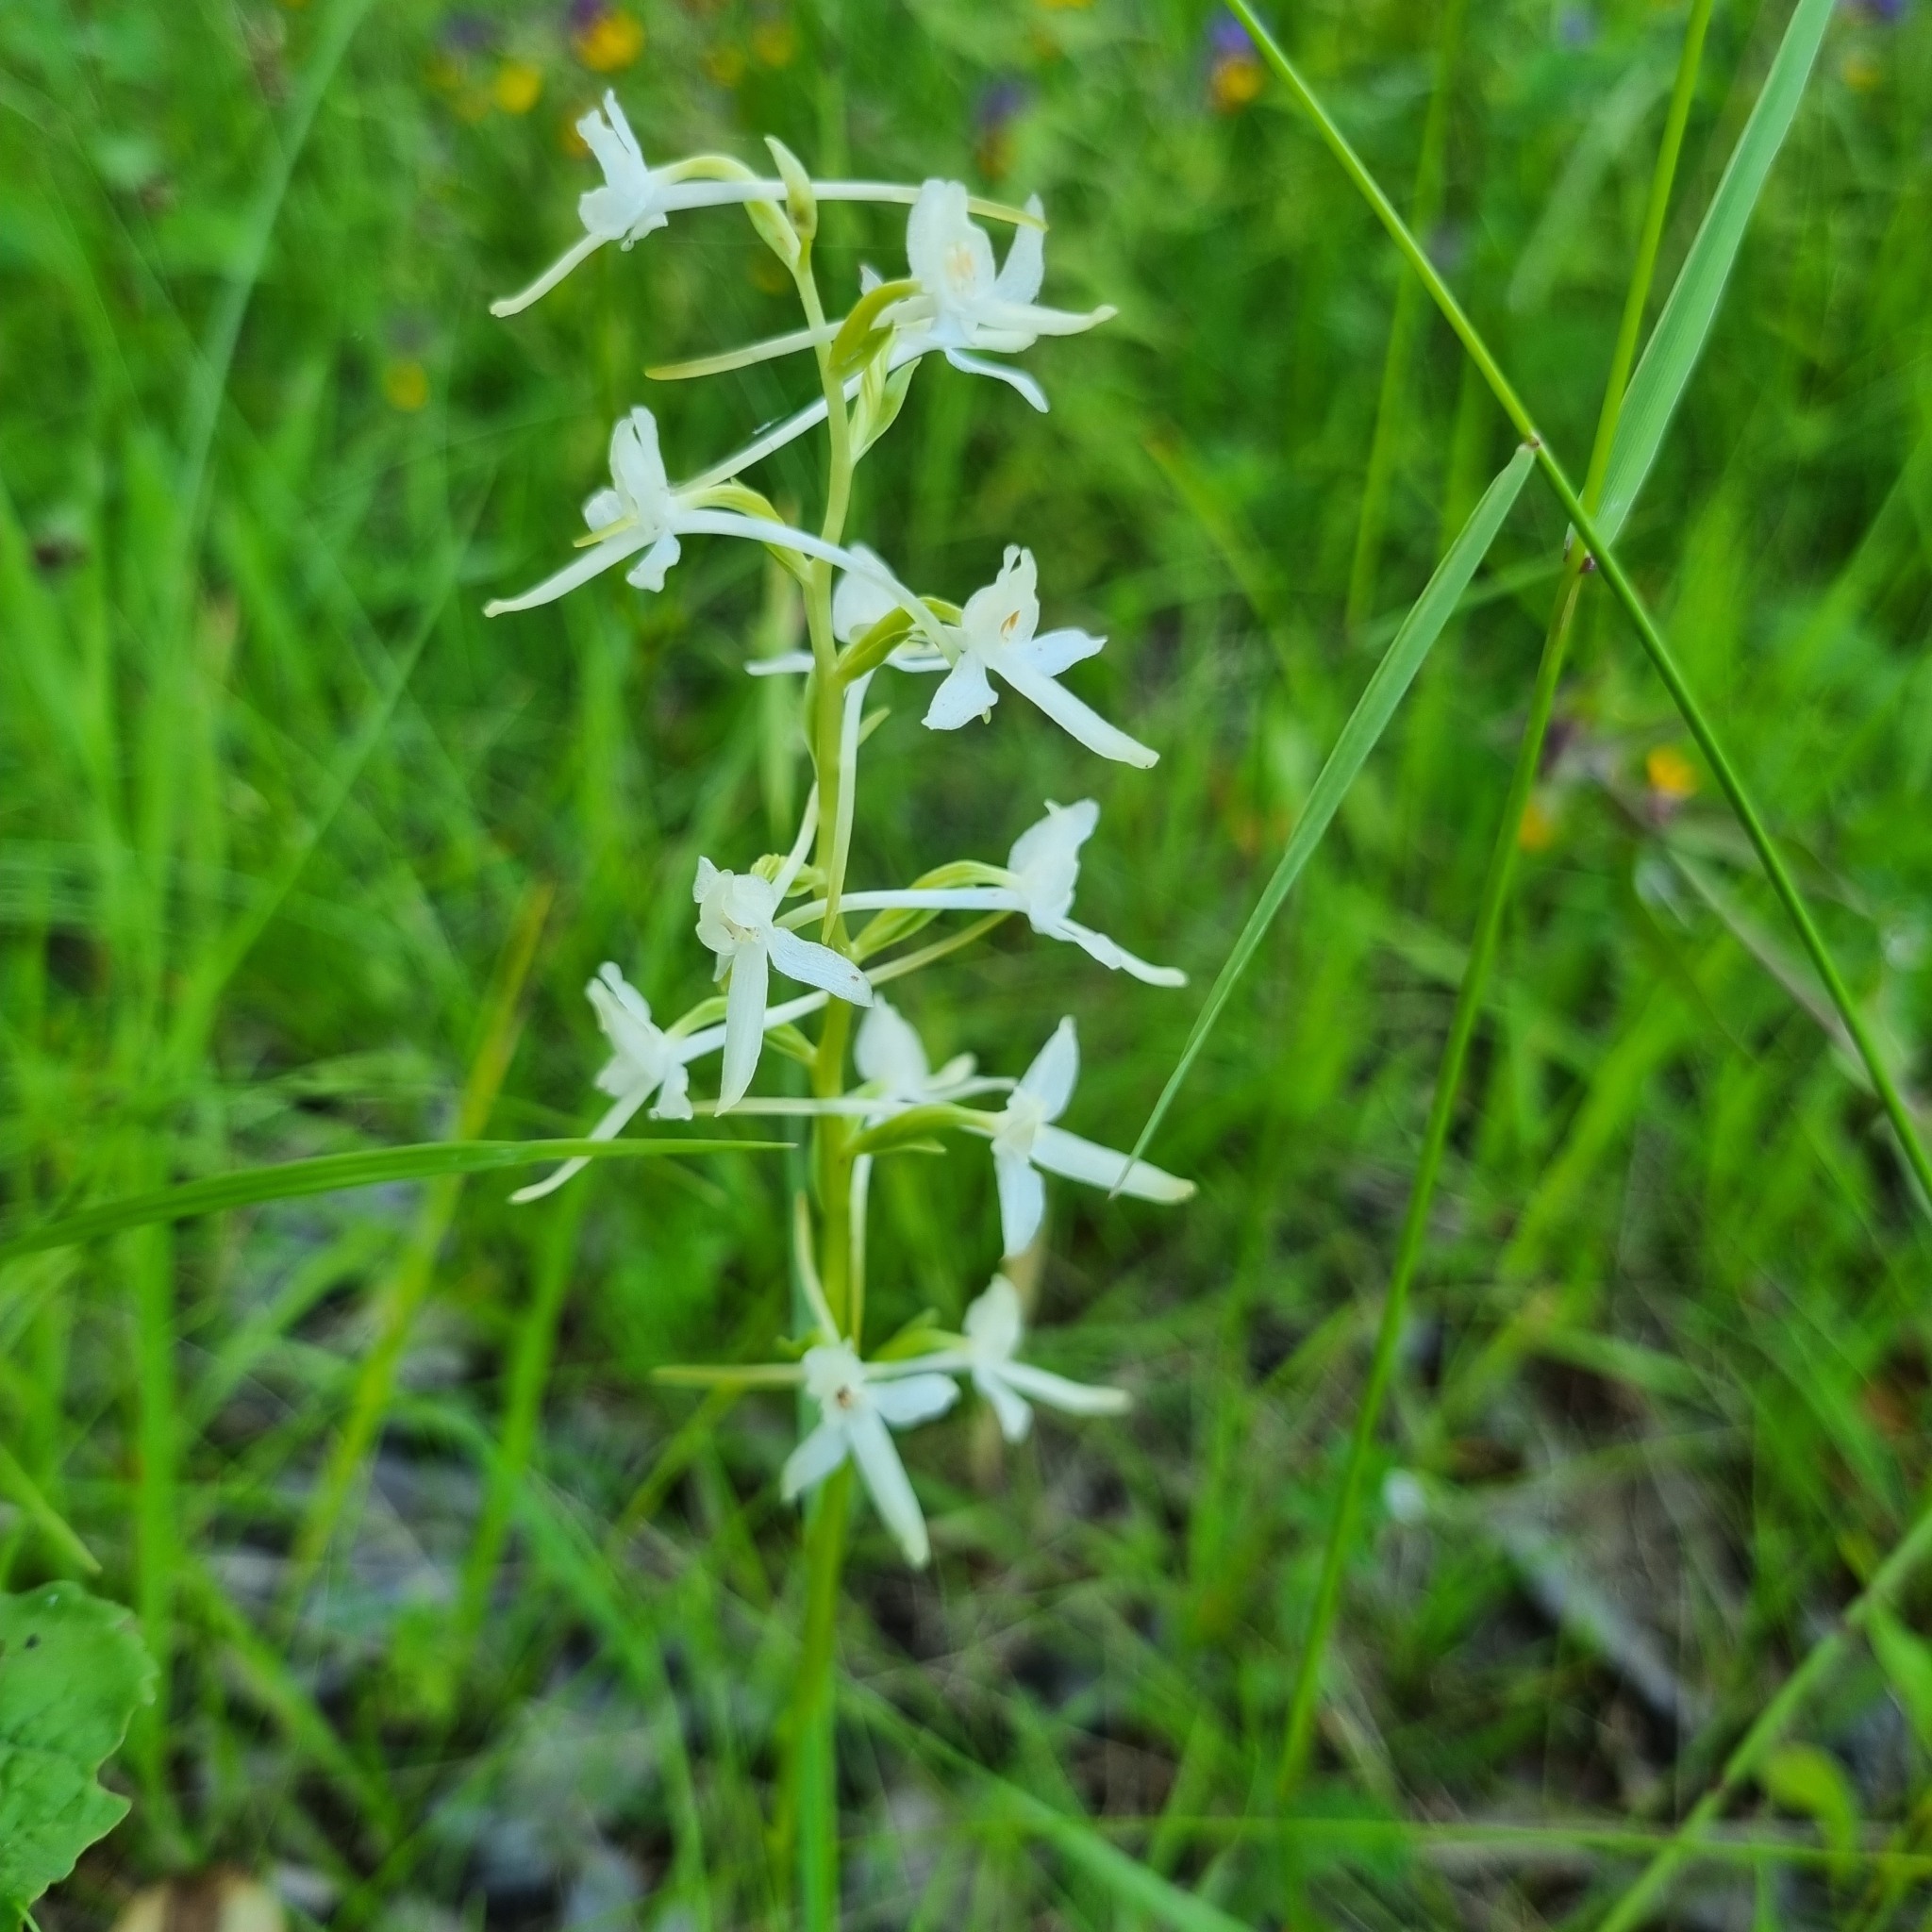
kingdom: Plantae
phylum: Tracheophyta
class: Liliopsida
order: Asparagales
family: Orchidaceae
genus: Platanthera
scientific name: Platanthera bifolia
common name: Lesser butterfly-orchid
